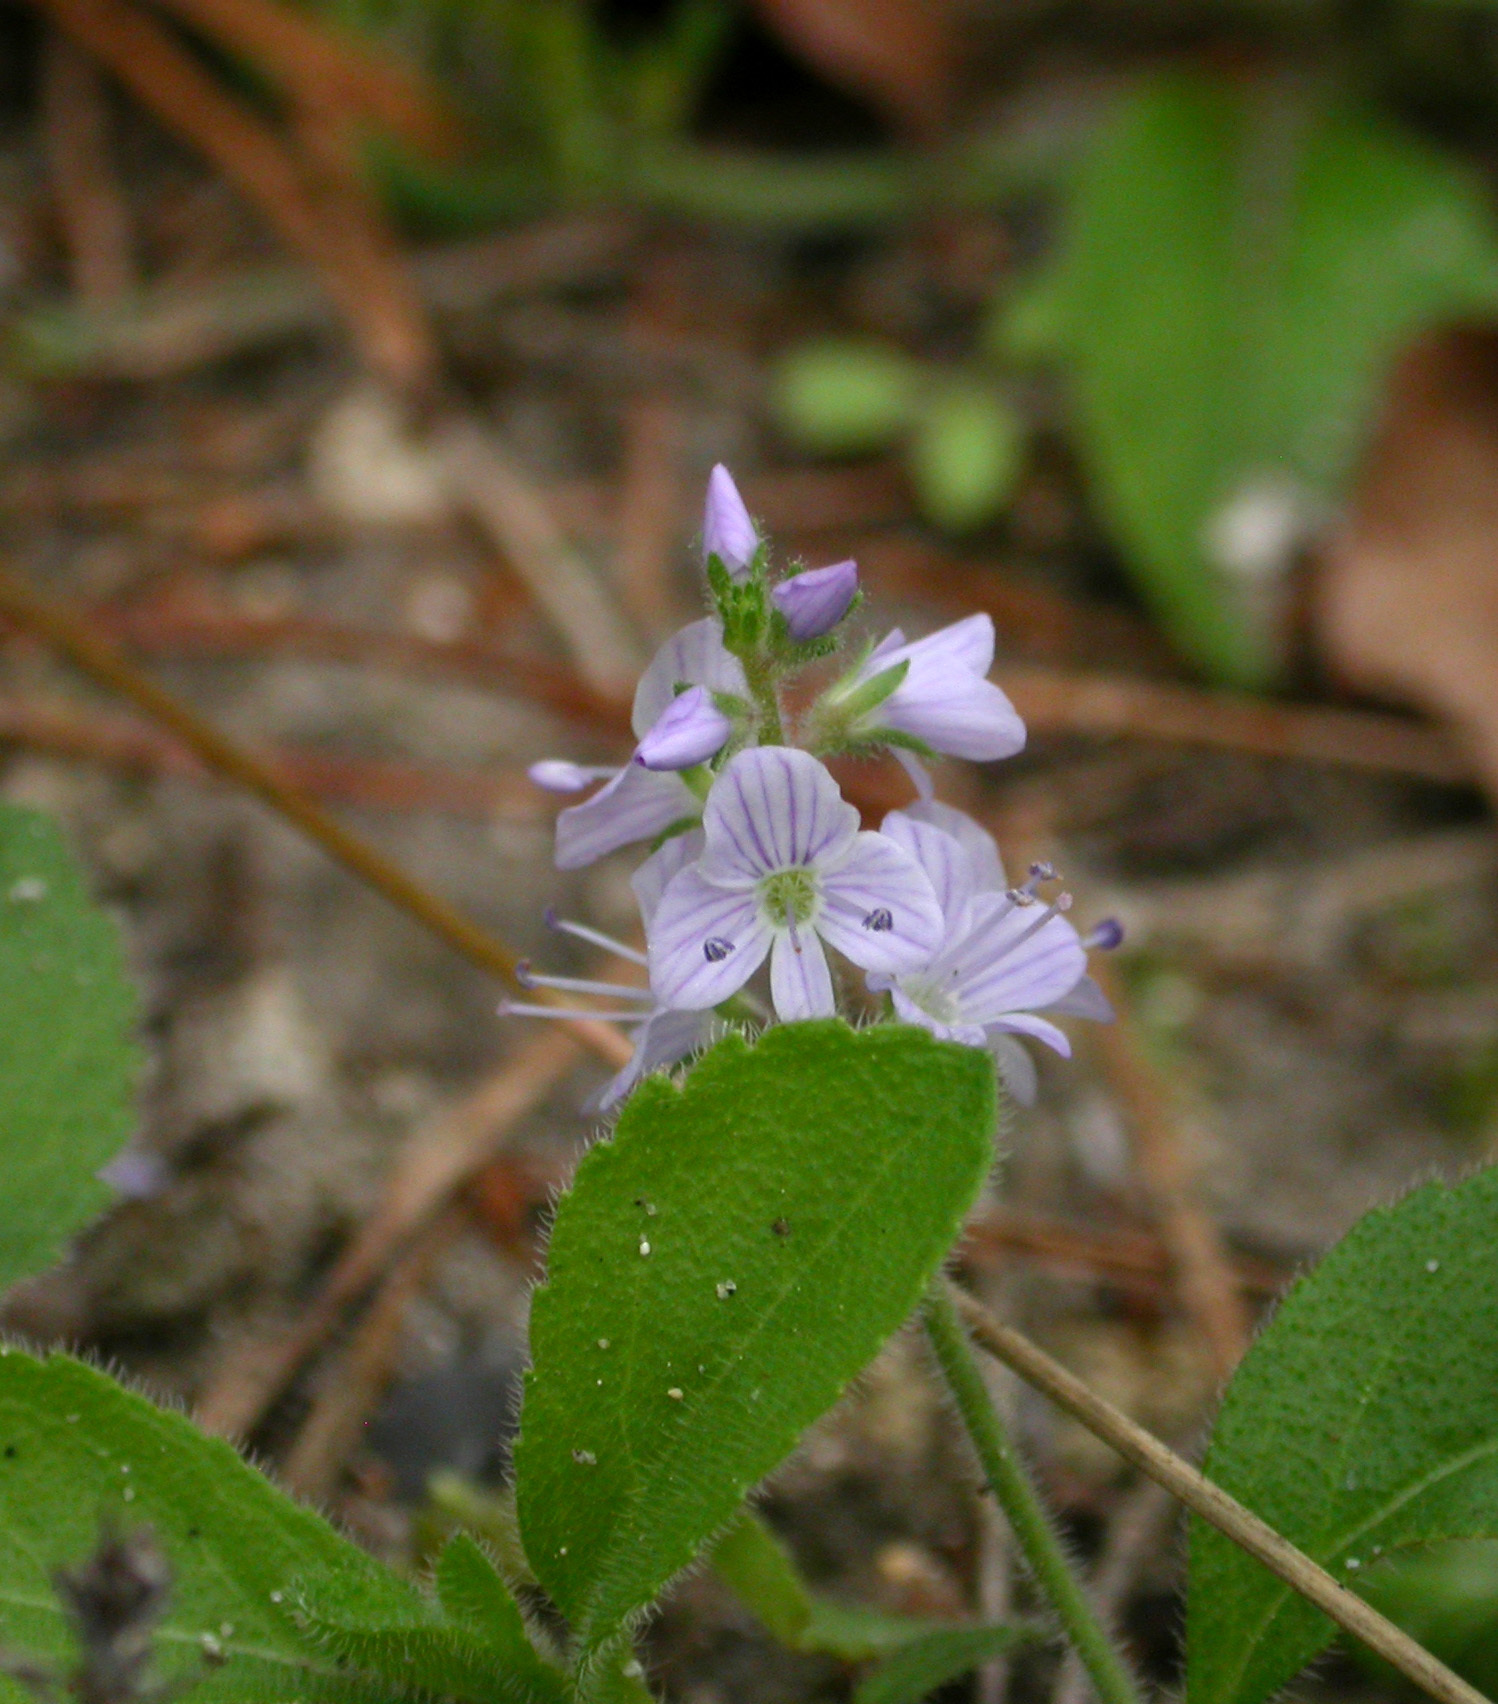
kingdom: Plantae
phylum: Tracheophyta
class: Magnoliopsida
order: Lamiales
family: Plantaginaceae
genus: Veronica
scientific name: Veronica officinalis
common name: Common speedwell
